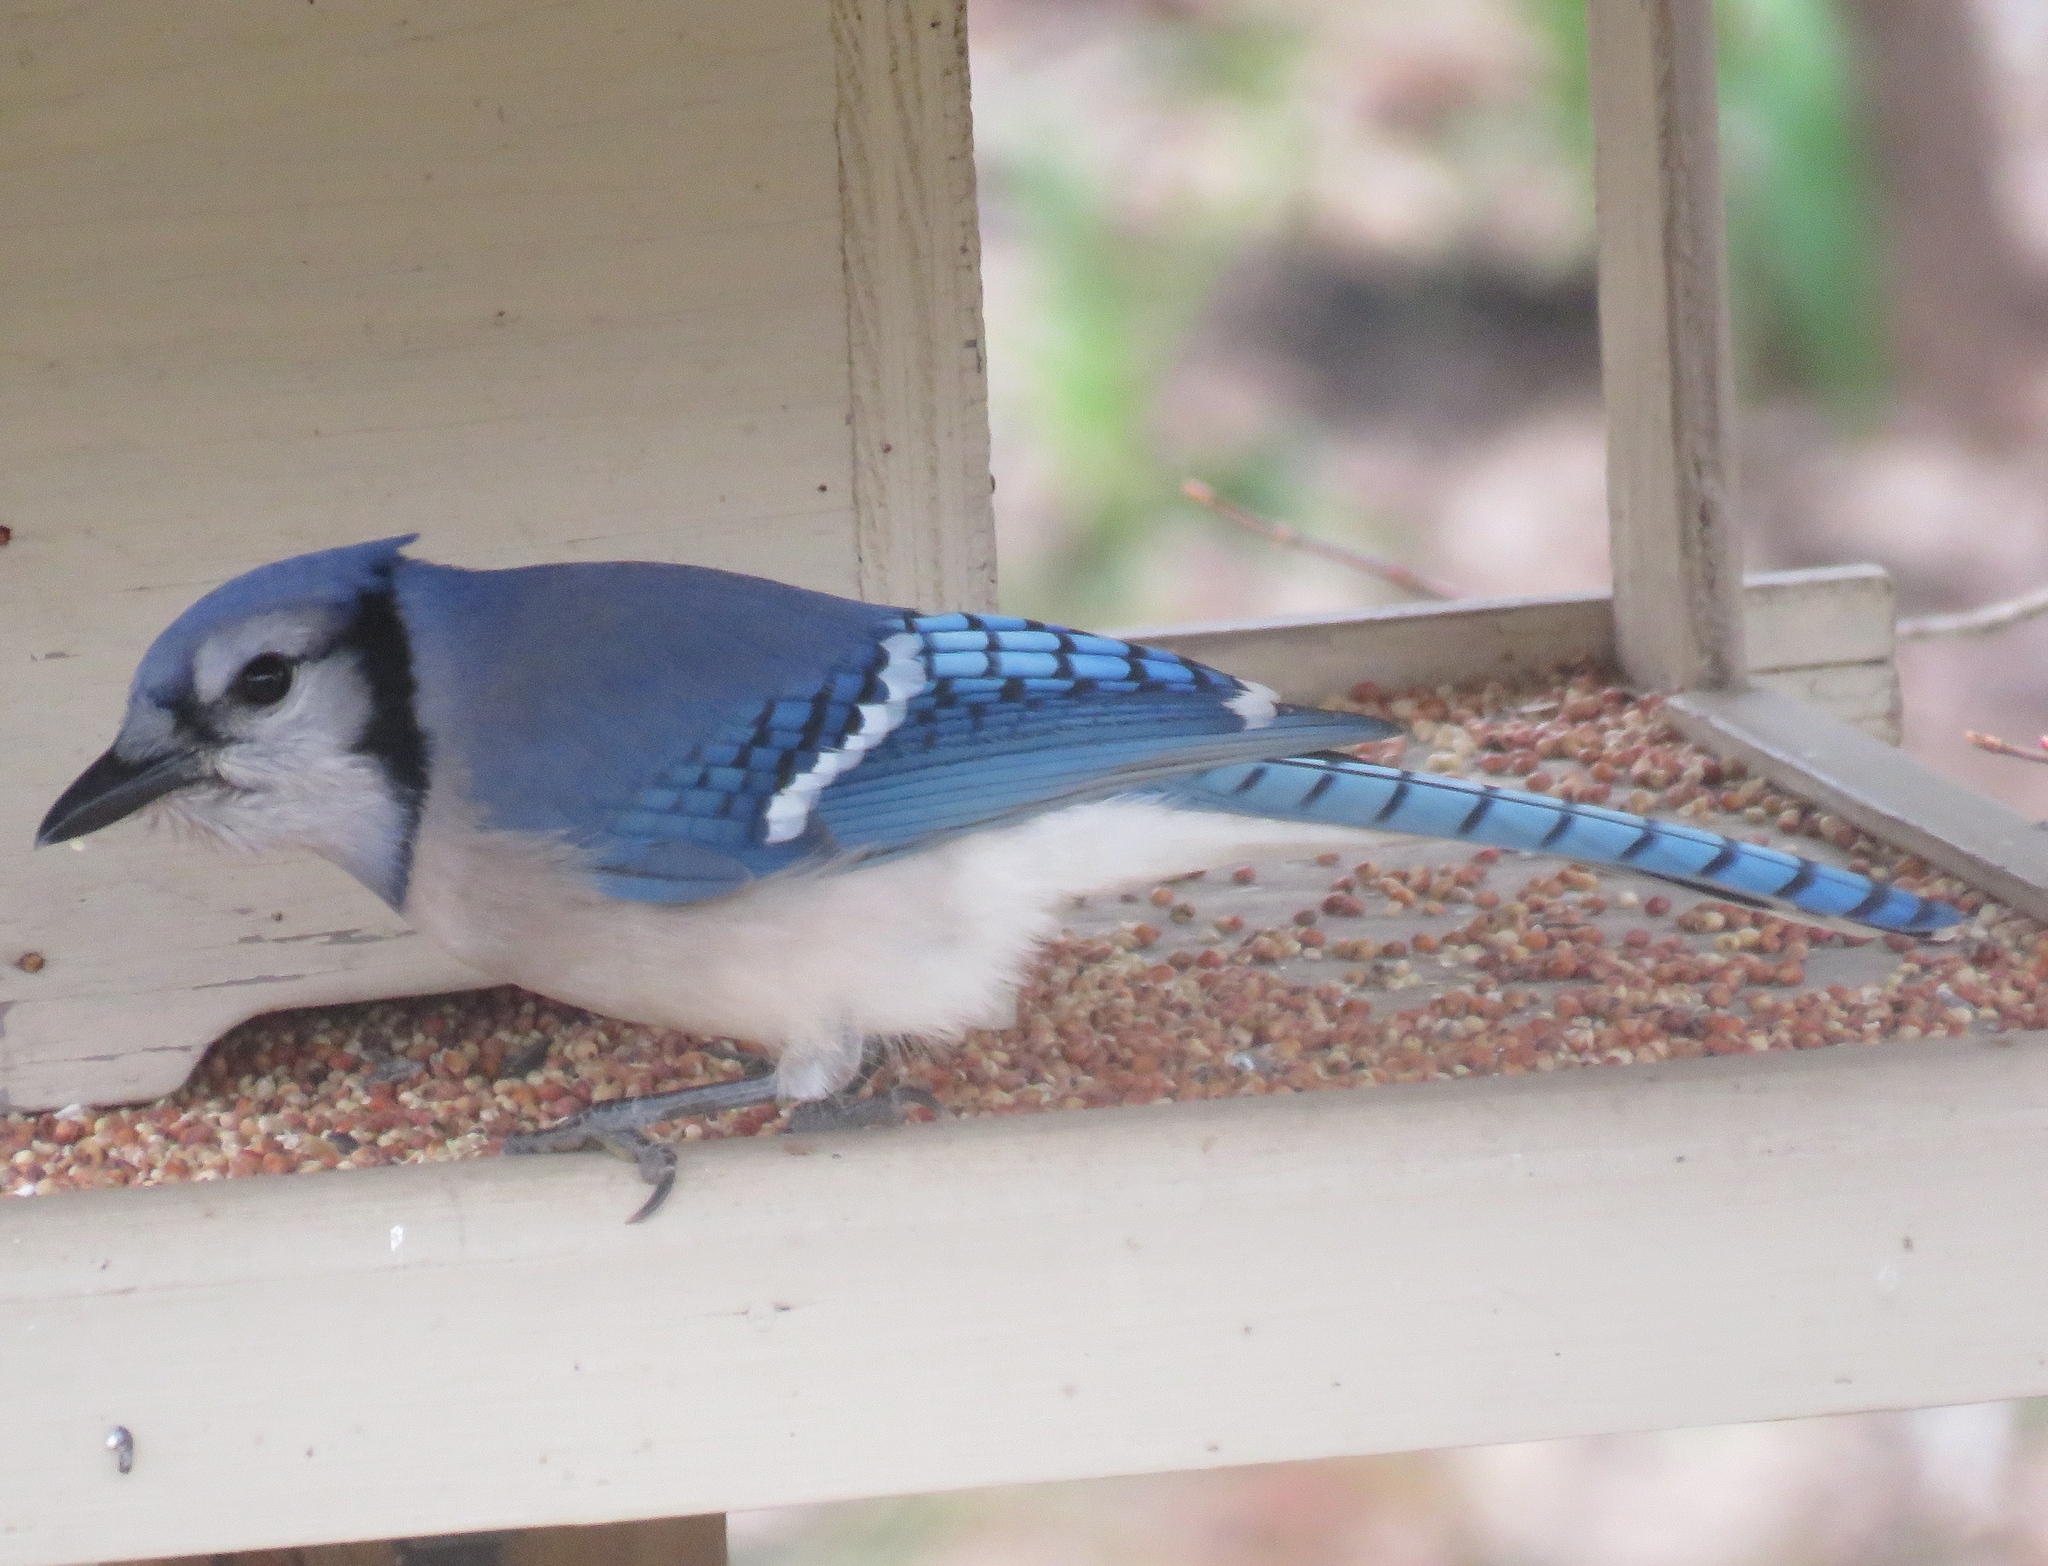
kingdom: Animalia
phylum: Chordata
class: Aves
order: Passeriformes
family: Corvidae
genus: Cyanocitta
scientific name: Cyanocitta cristata
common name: Blue jay
